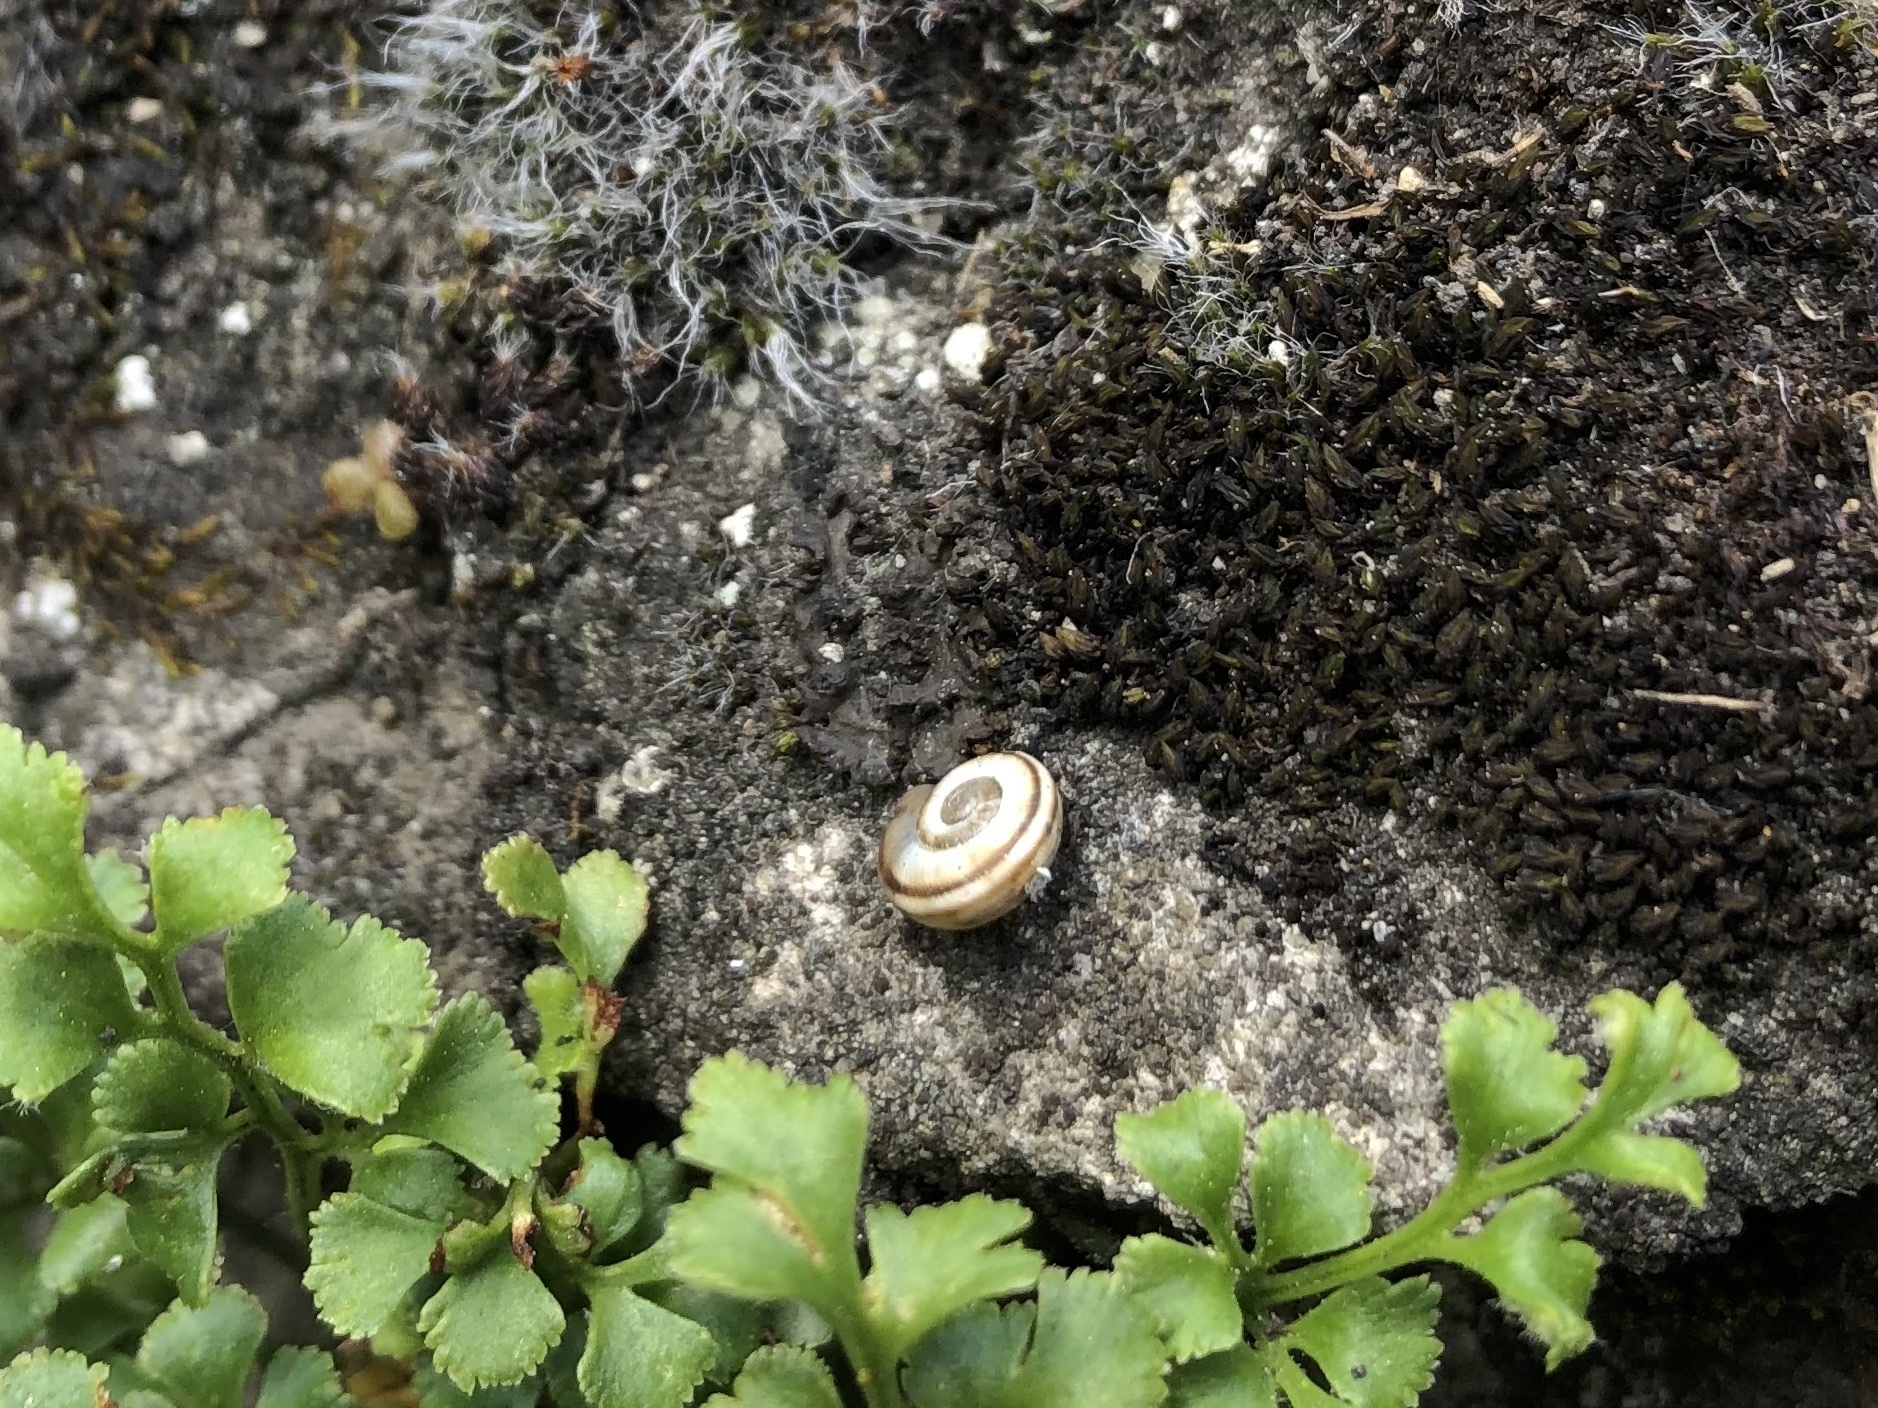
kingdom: Animalia
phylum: Mollusca
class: Gastropoda
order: Stylommatophora
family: Geomitridae
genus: Xerolenta
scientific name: Xerolenta obvia
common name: White heath snail
